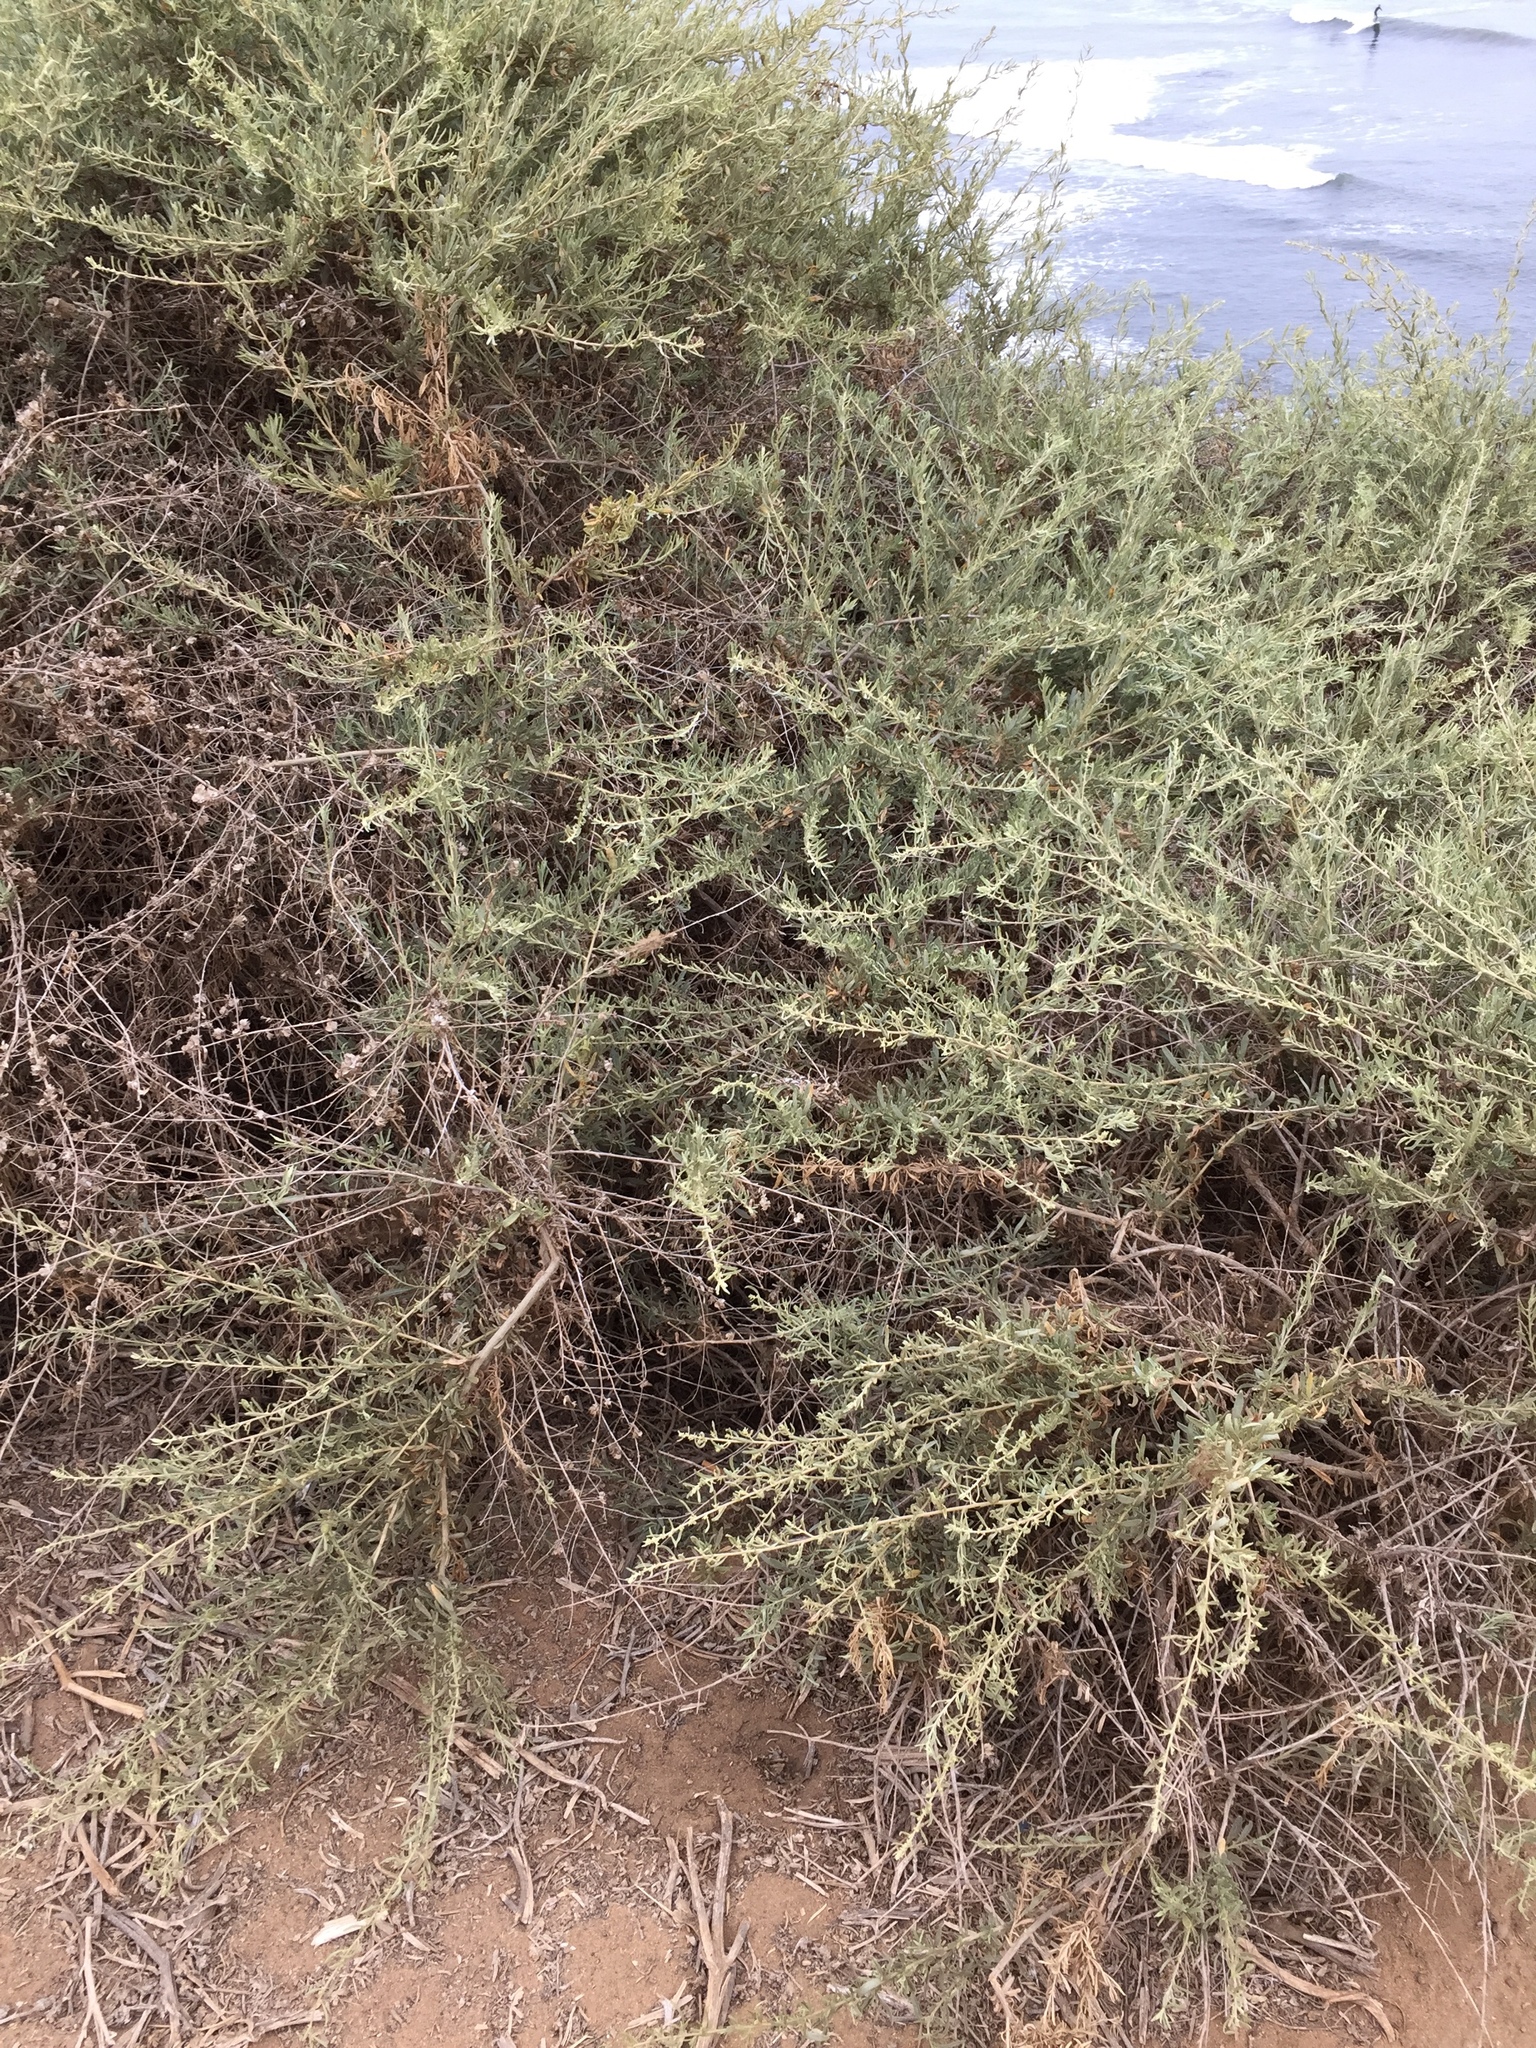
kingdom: Plantae
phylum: Tracheophyta
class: Magnoliopsida
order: Caryophyllales
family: Amaranthaceae
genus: Atriplex
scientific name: Atriplex canescens
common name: Four-wing saltbush
